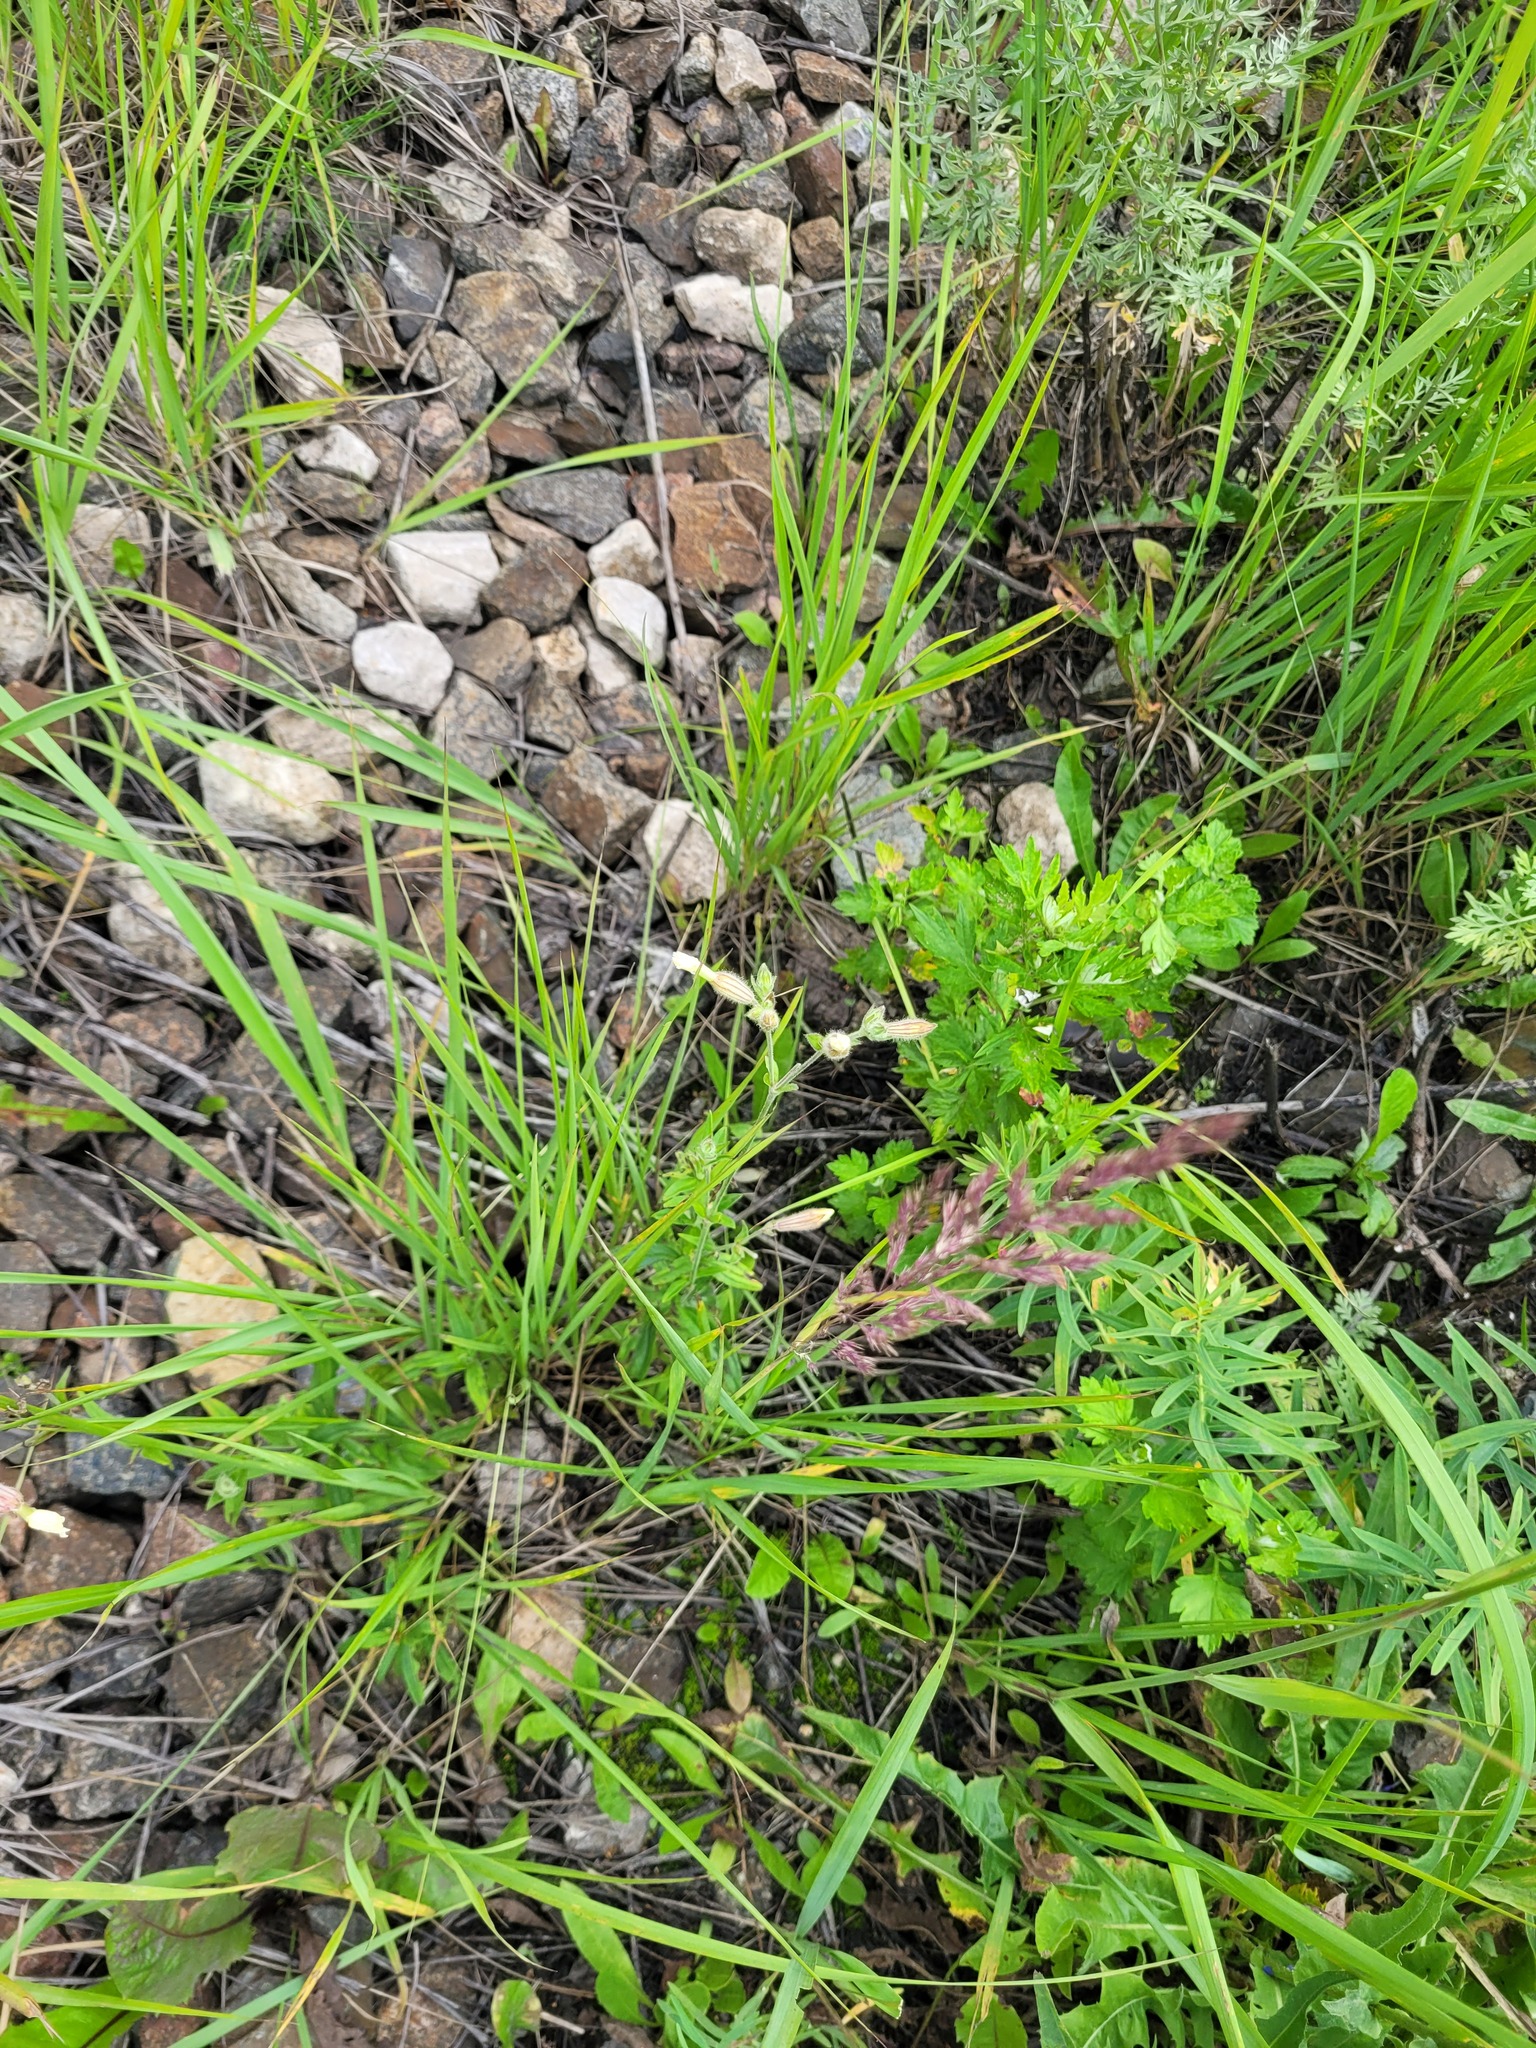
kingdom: Plantae
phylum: Tracheophyta
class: Magnoliopsida
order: Caryophyllales
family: Caryophyllaceae
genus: Silene
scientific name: Silene latifolia
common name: White campion
